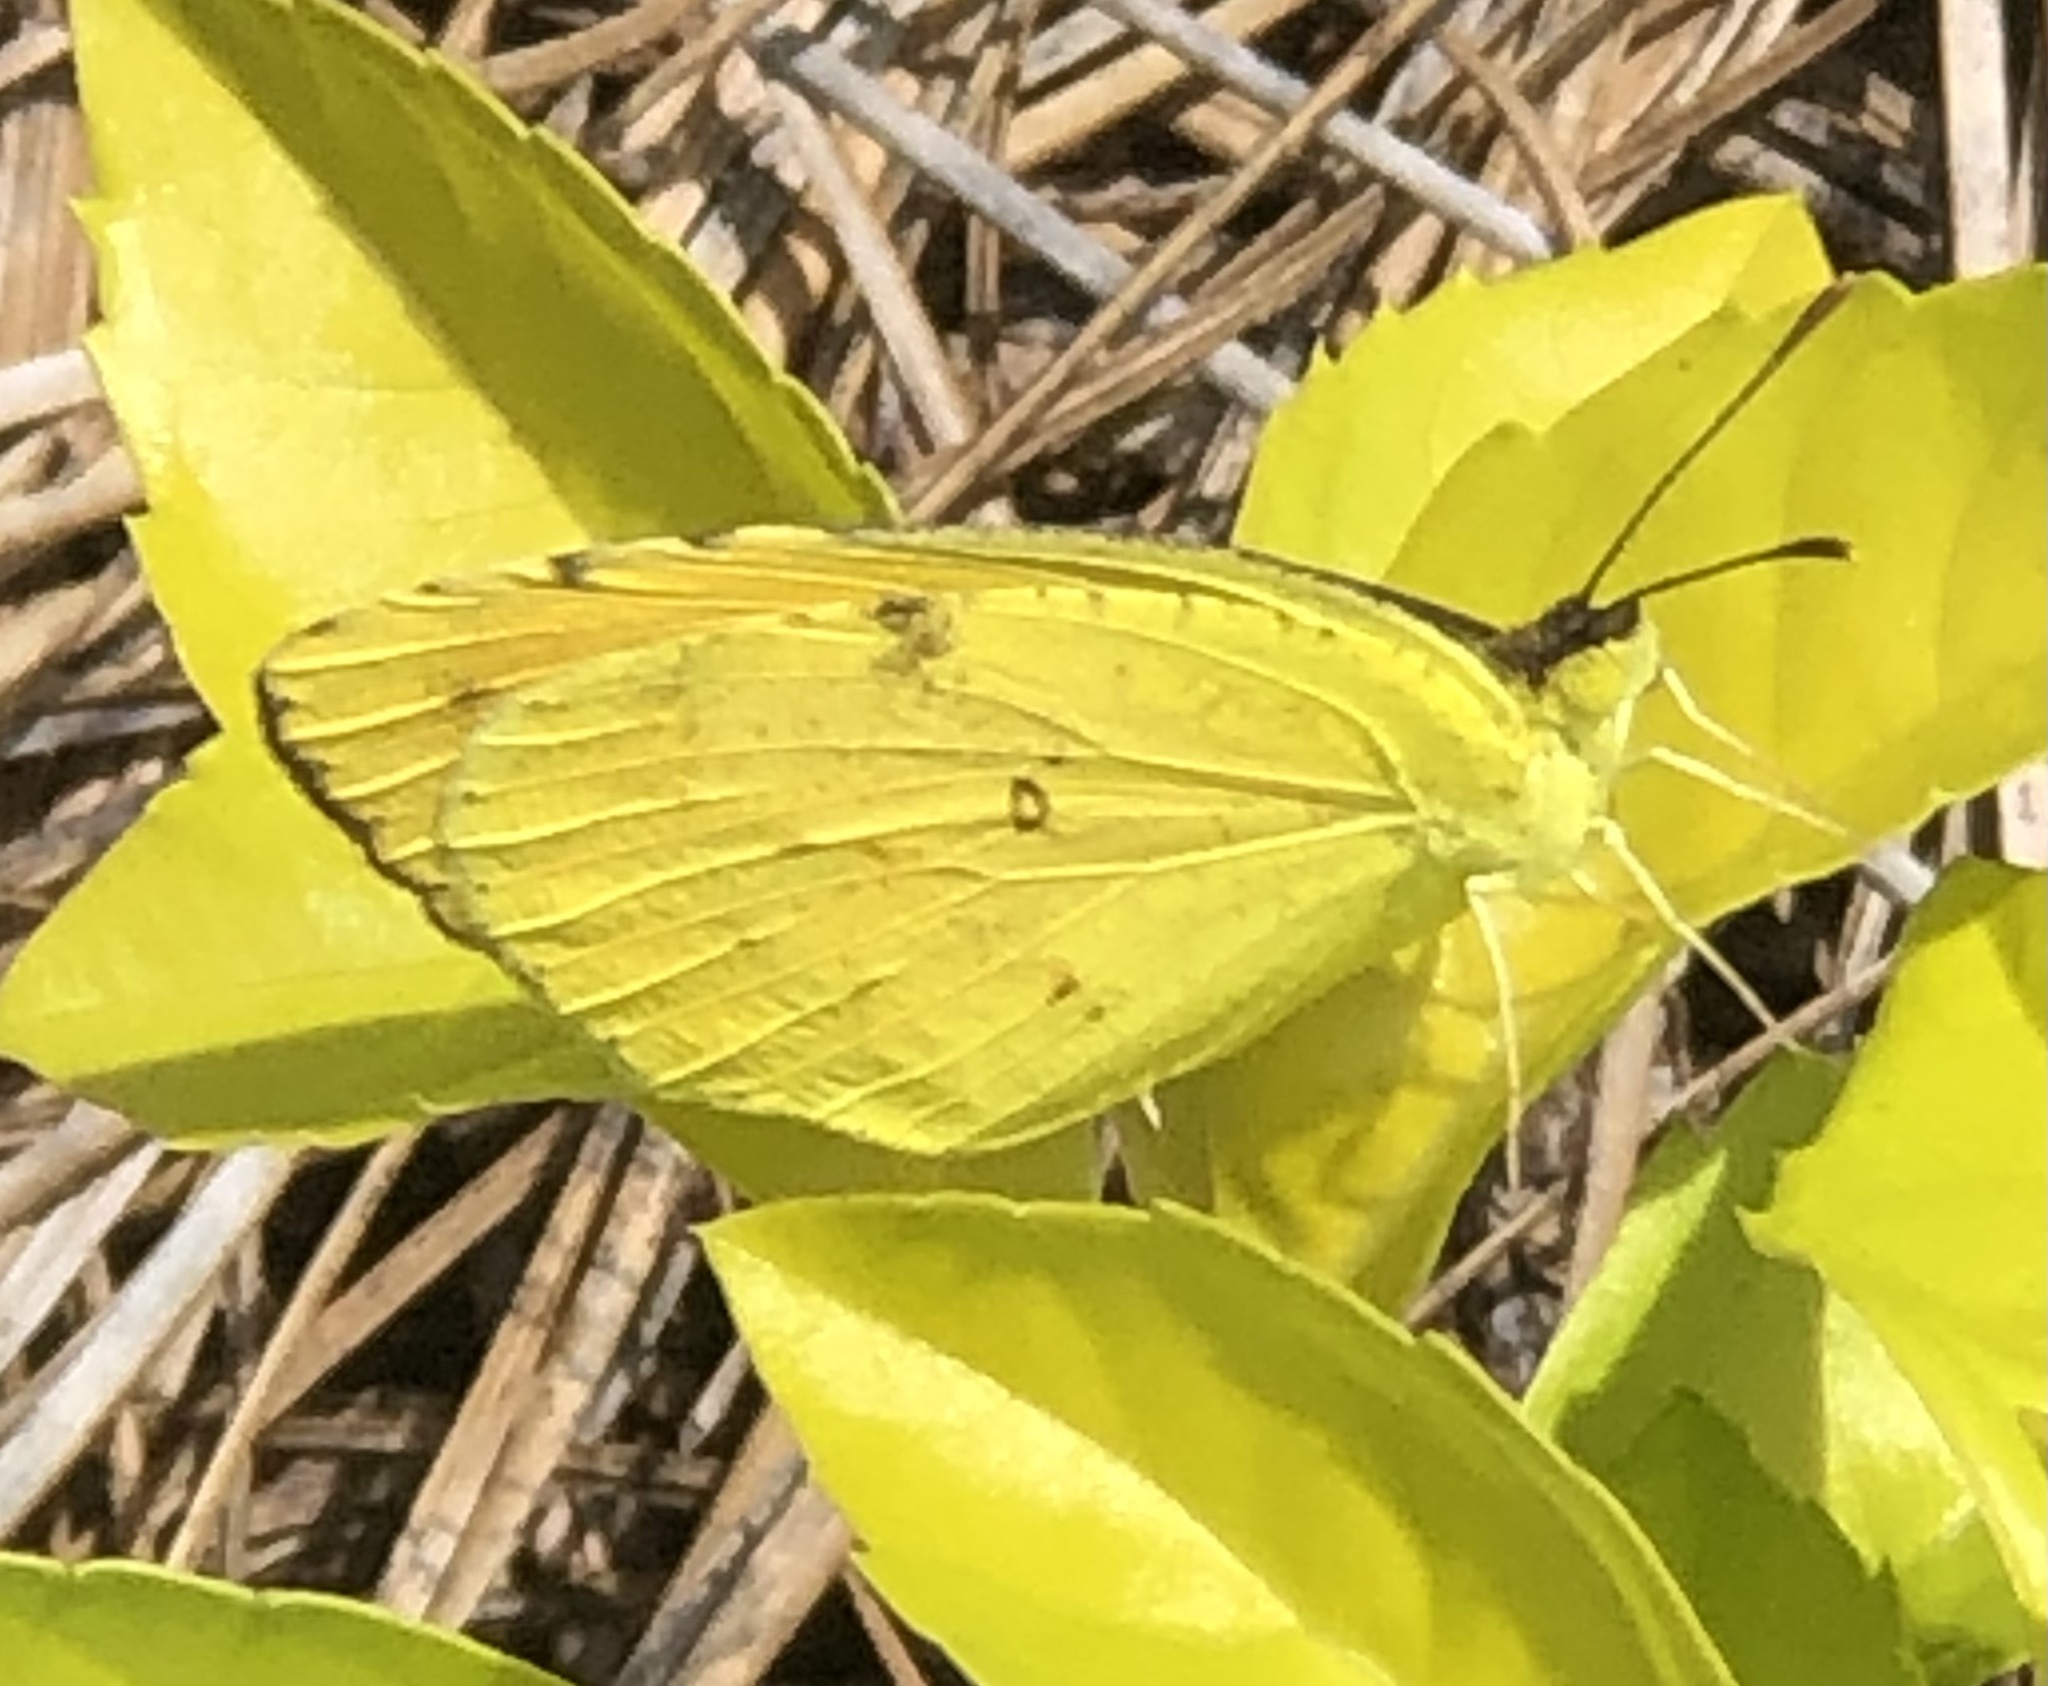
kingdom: Animalia
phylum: Arthropoda
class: Insecta
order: Lepidoptera
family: Pieridae
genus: Abaeis
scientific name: Abaeis nicippe
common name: Sleepy orange
